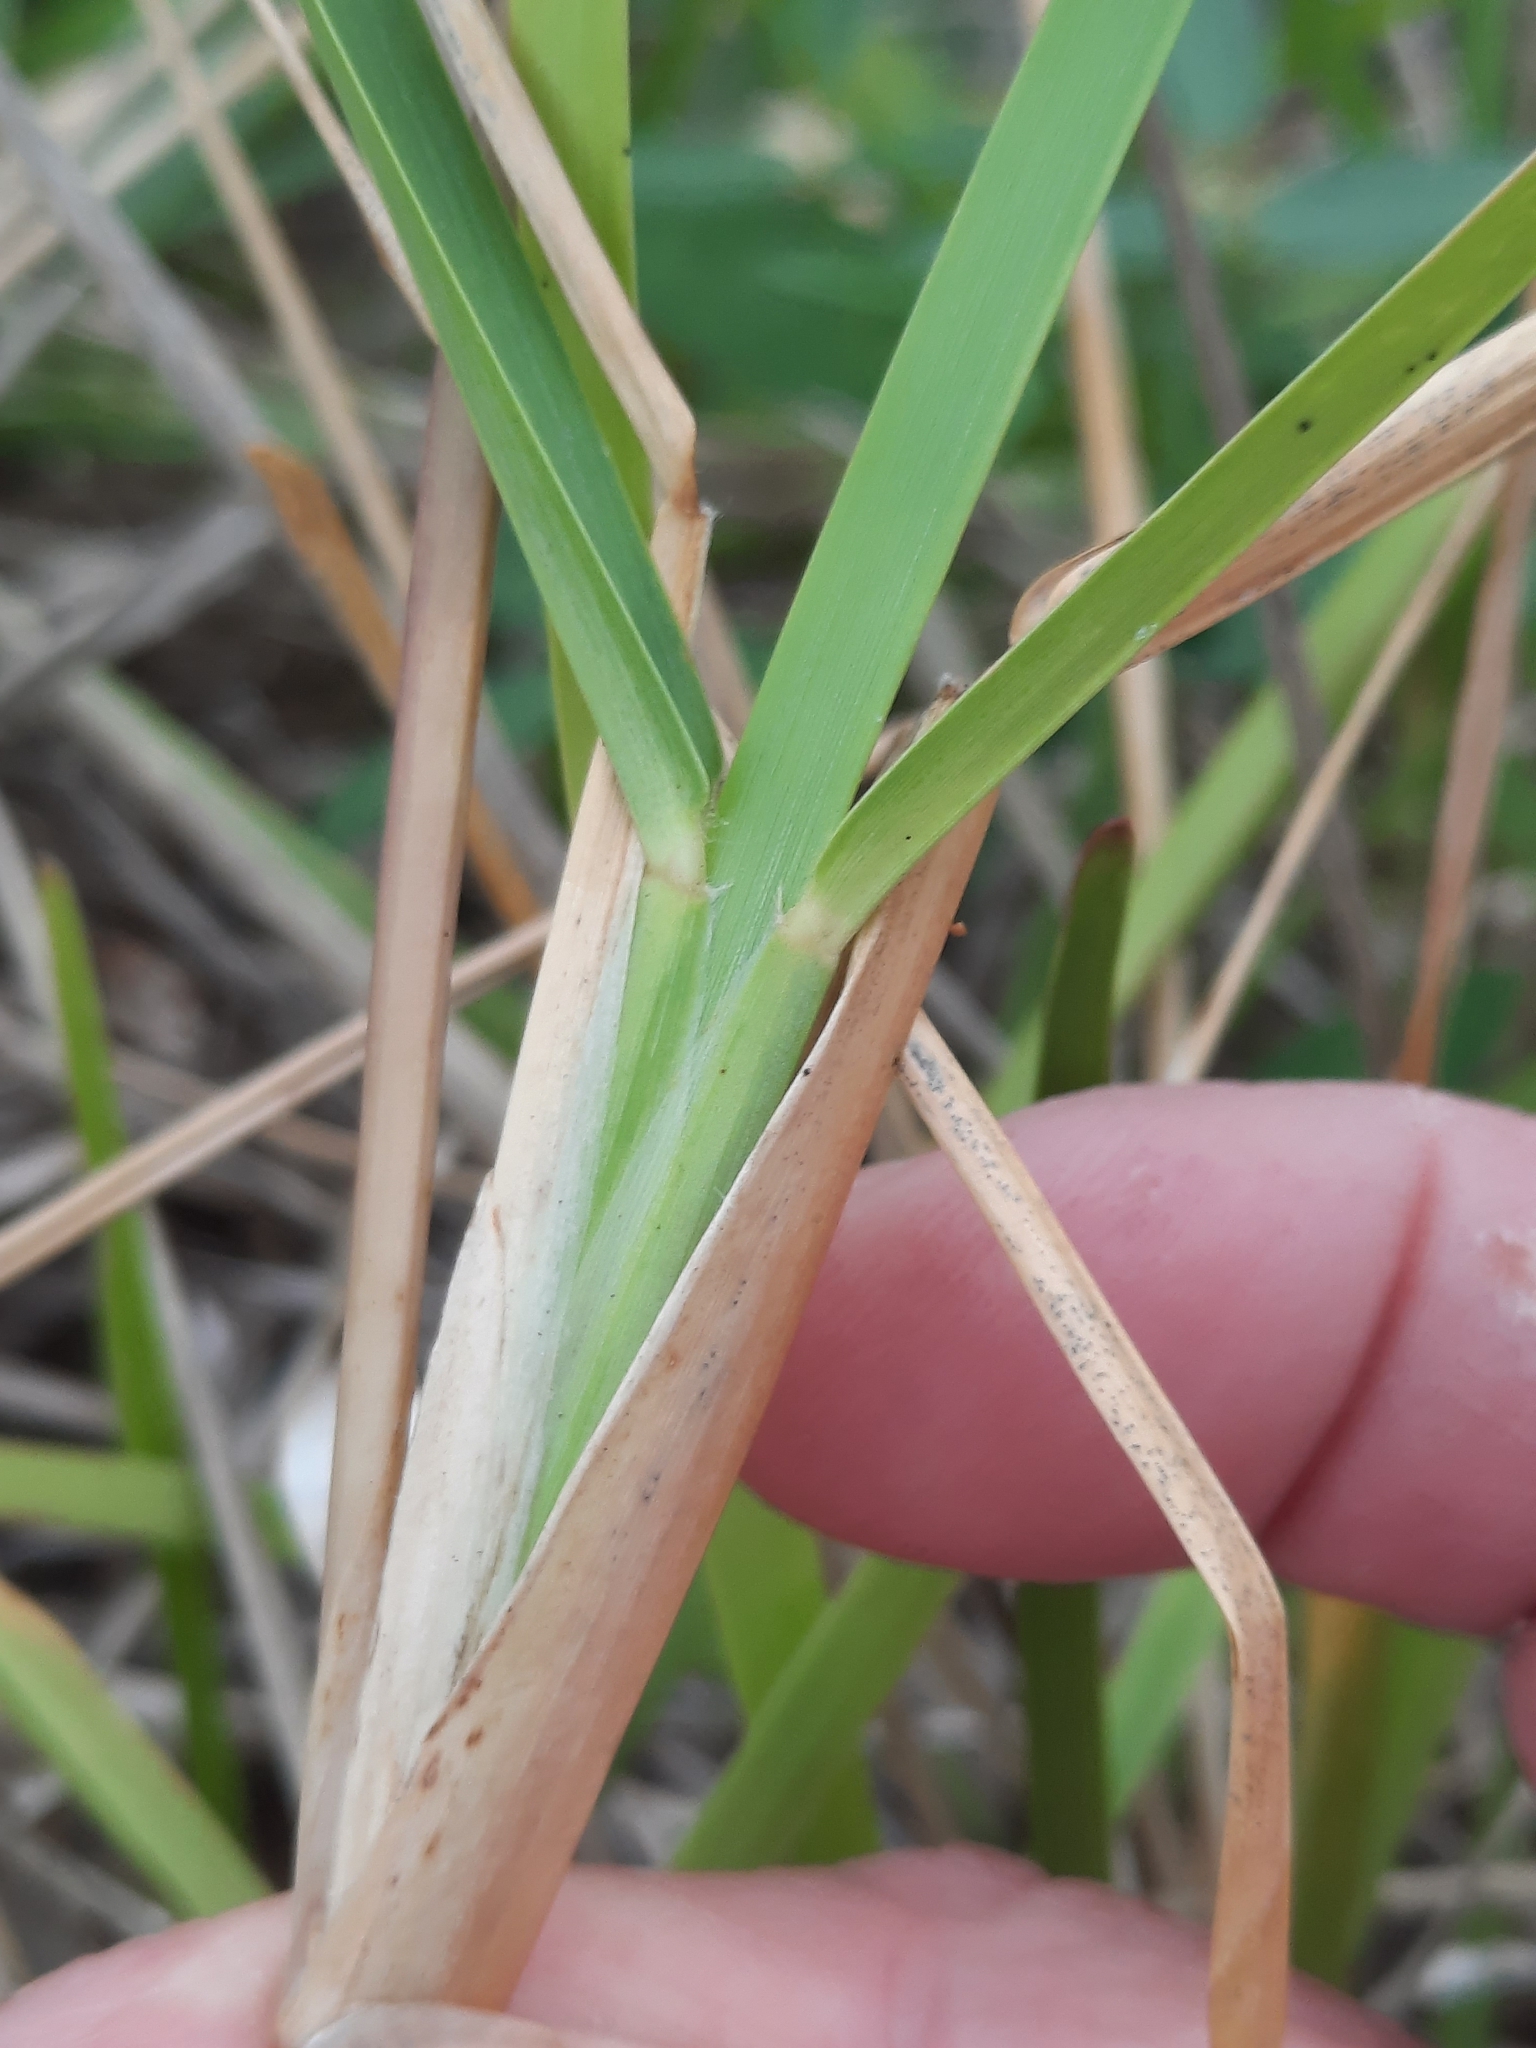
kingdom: Plantae
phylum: Tracheophyta
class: Liliopsida
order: Poales
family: Poaceae
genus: Stenotaphrum
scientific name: Stenotaphrum secundatum
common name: St. augustine grass
